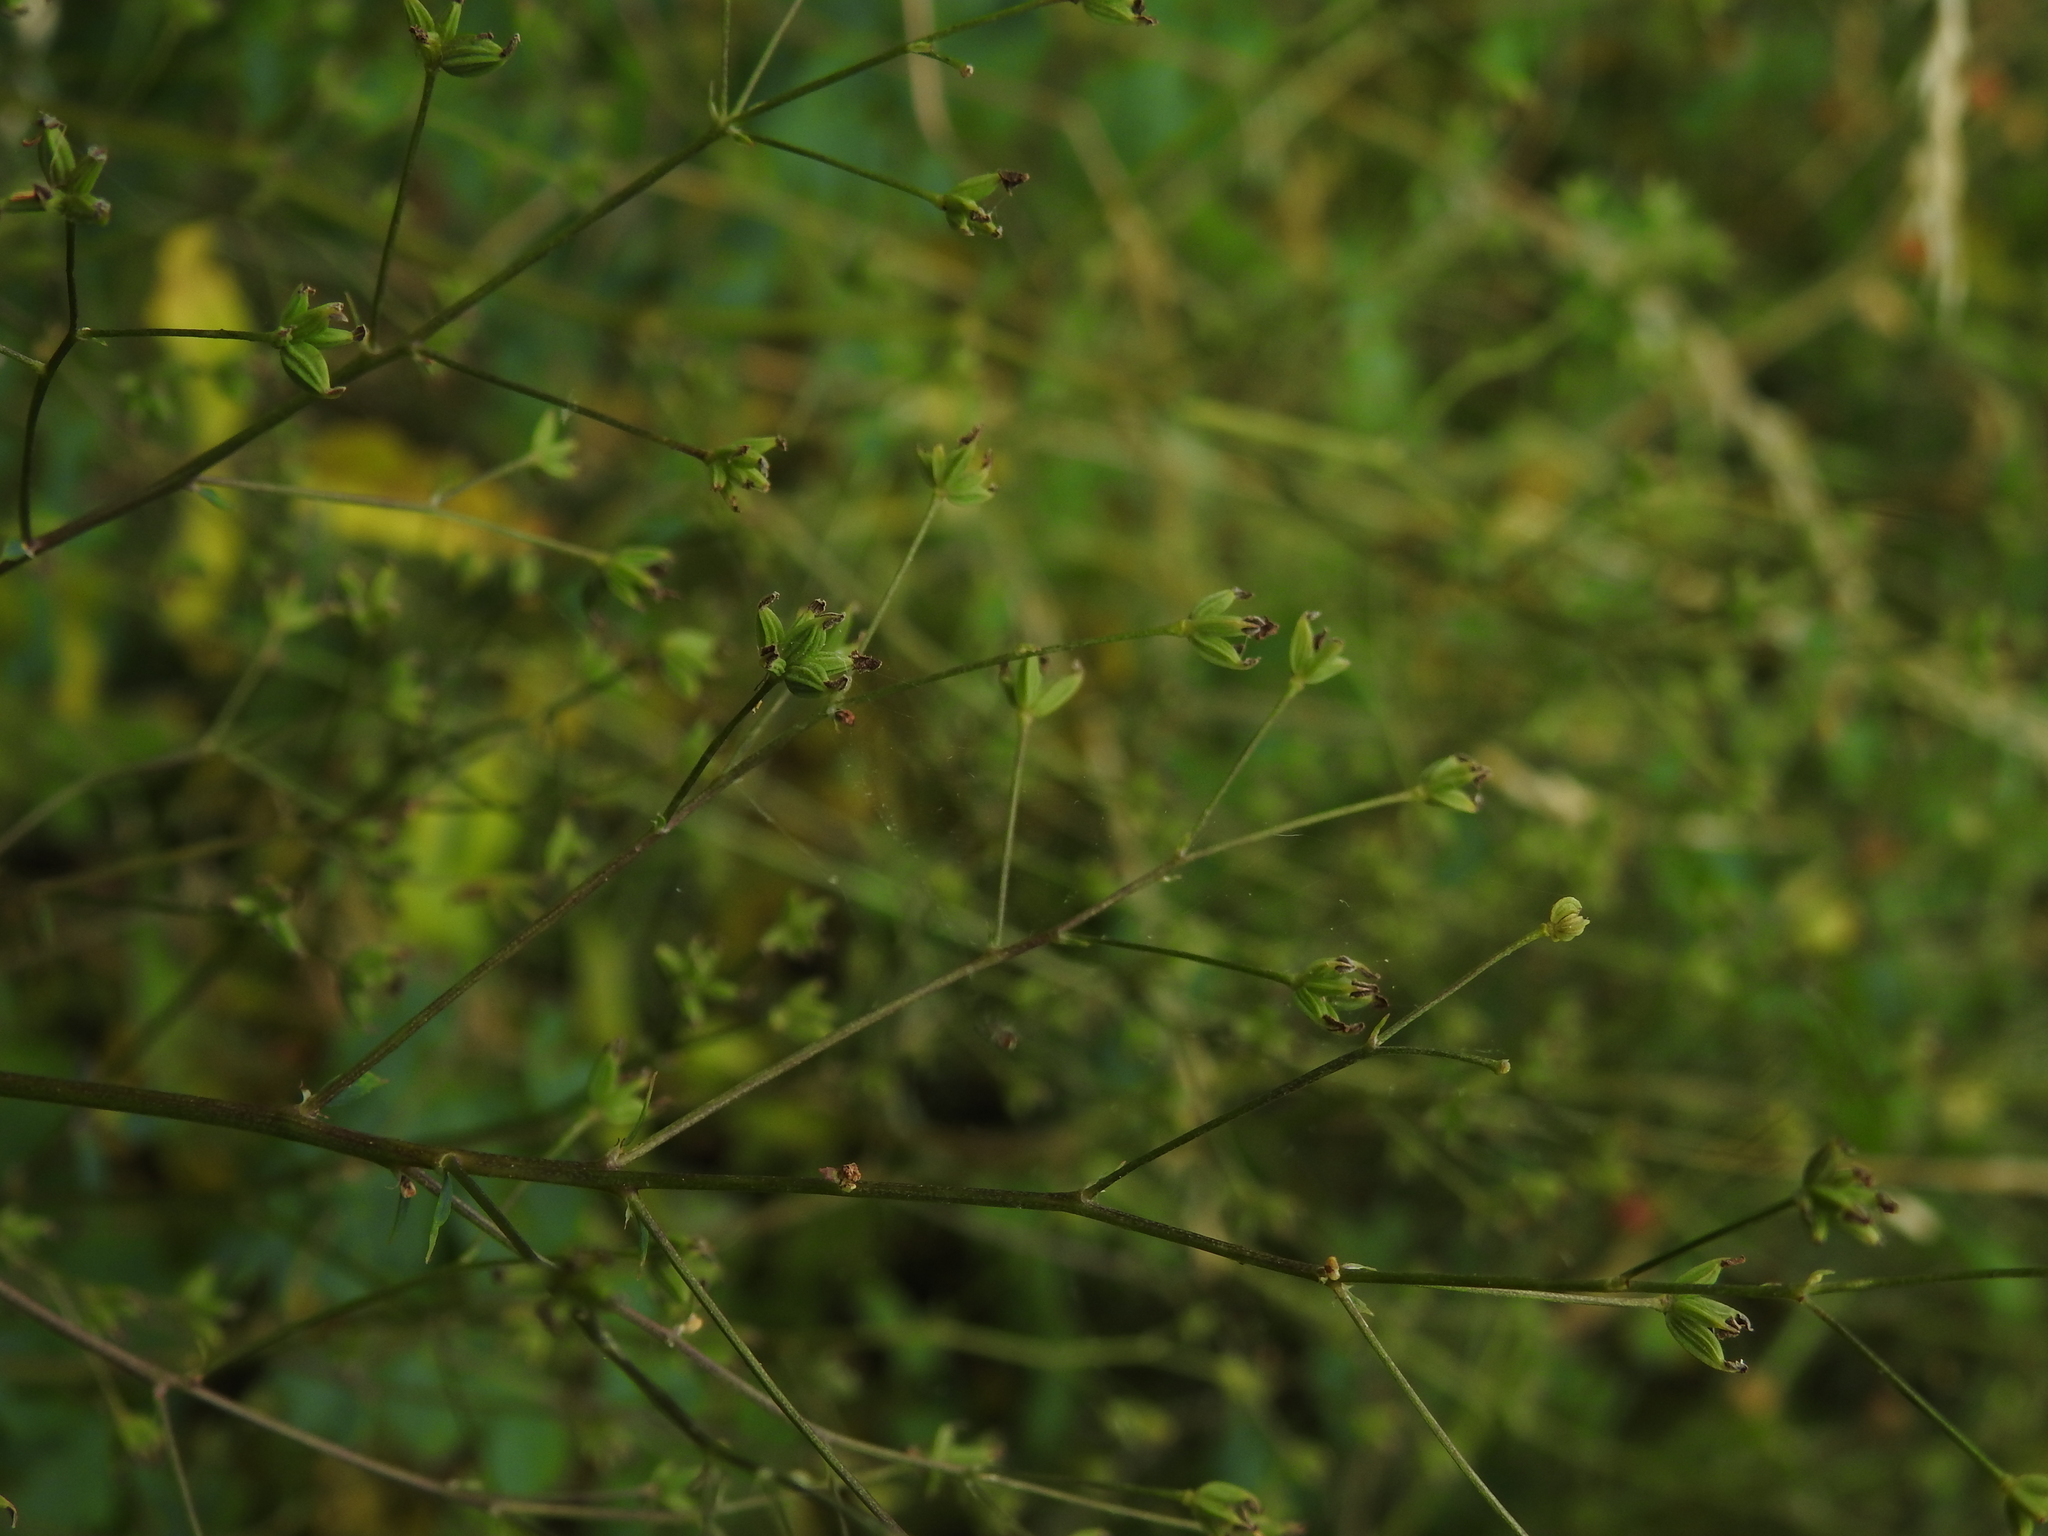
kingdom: Plantae
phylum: Tracheophyta
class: Magnoliopsida
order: Apiales
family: Apiaceae
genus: Bupleurum
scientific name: Bupleurum praealtum
